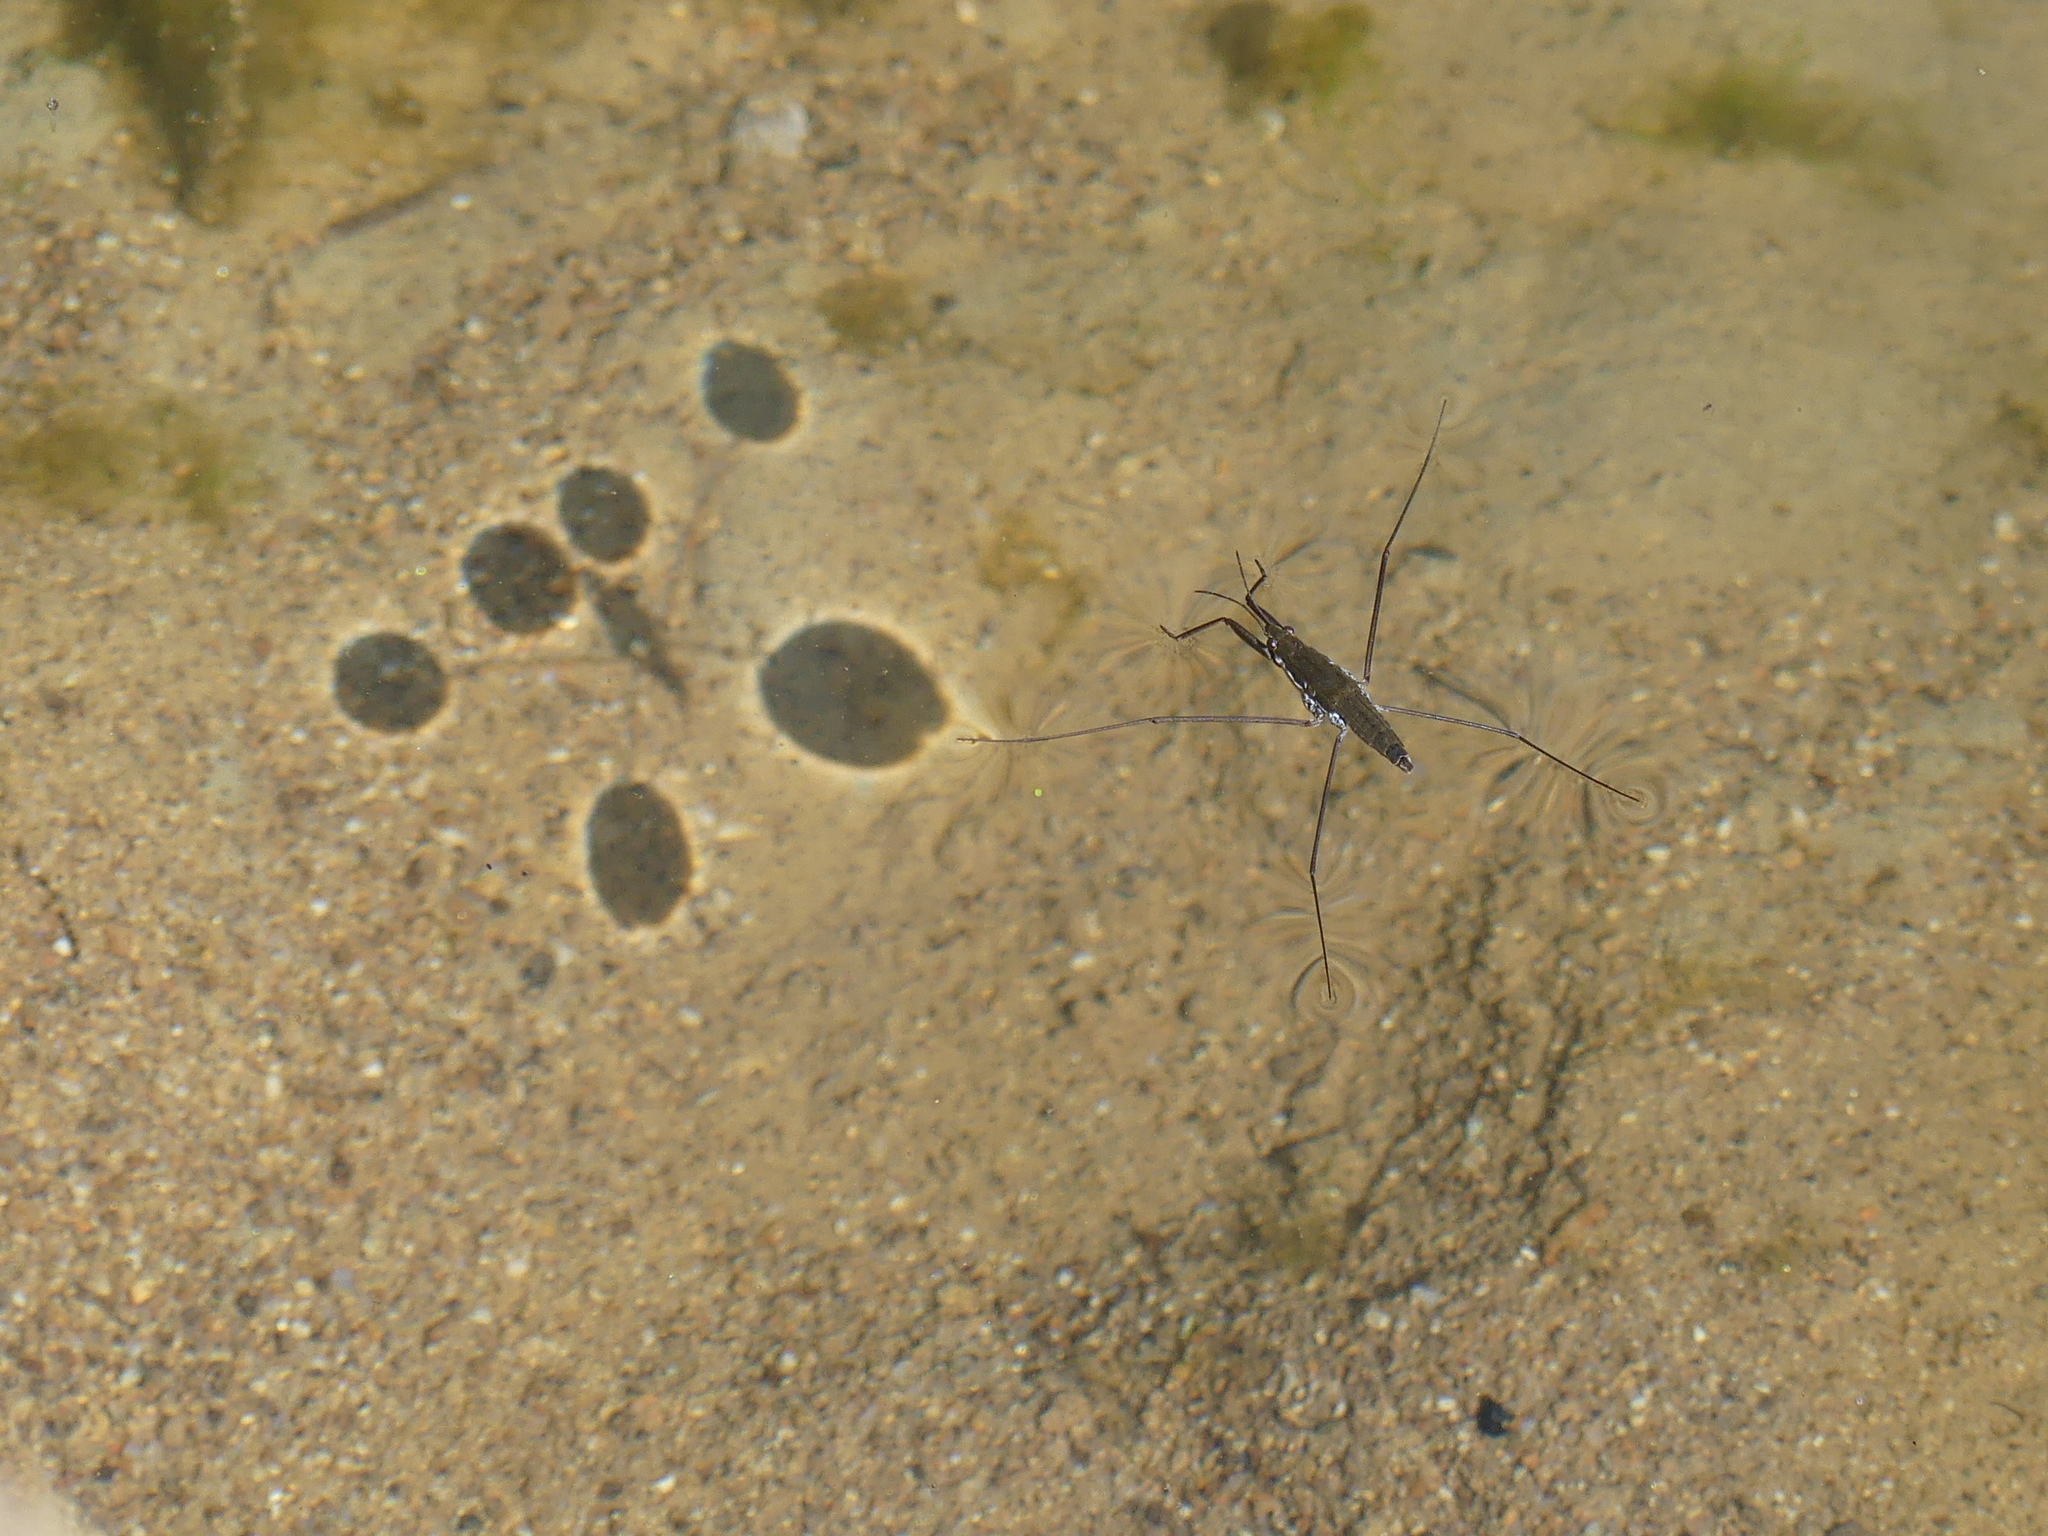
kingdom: Animalia
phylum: Arthropoda
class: Insecta
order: Hemiptera
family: Gerridae
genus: Aquarius
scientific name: Aquarius
